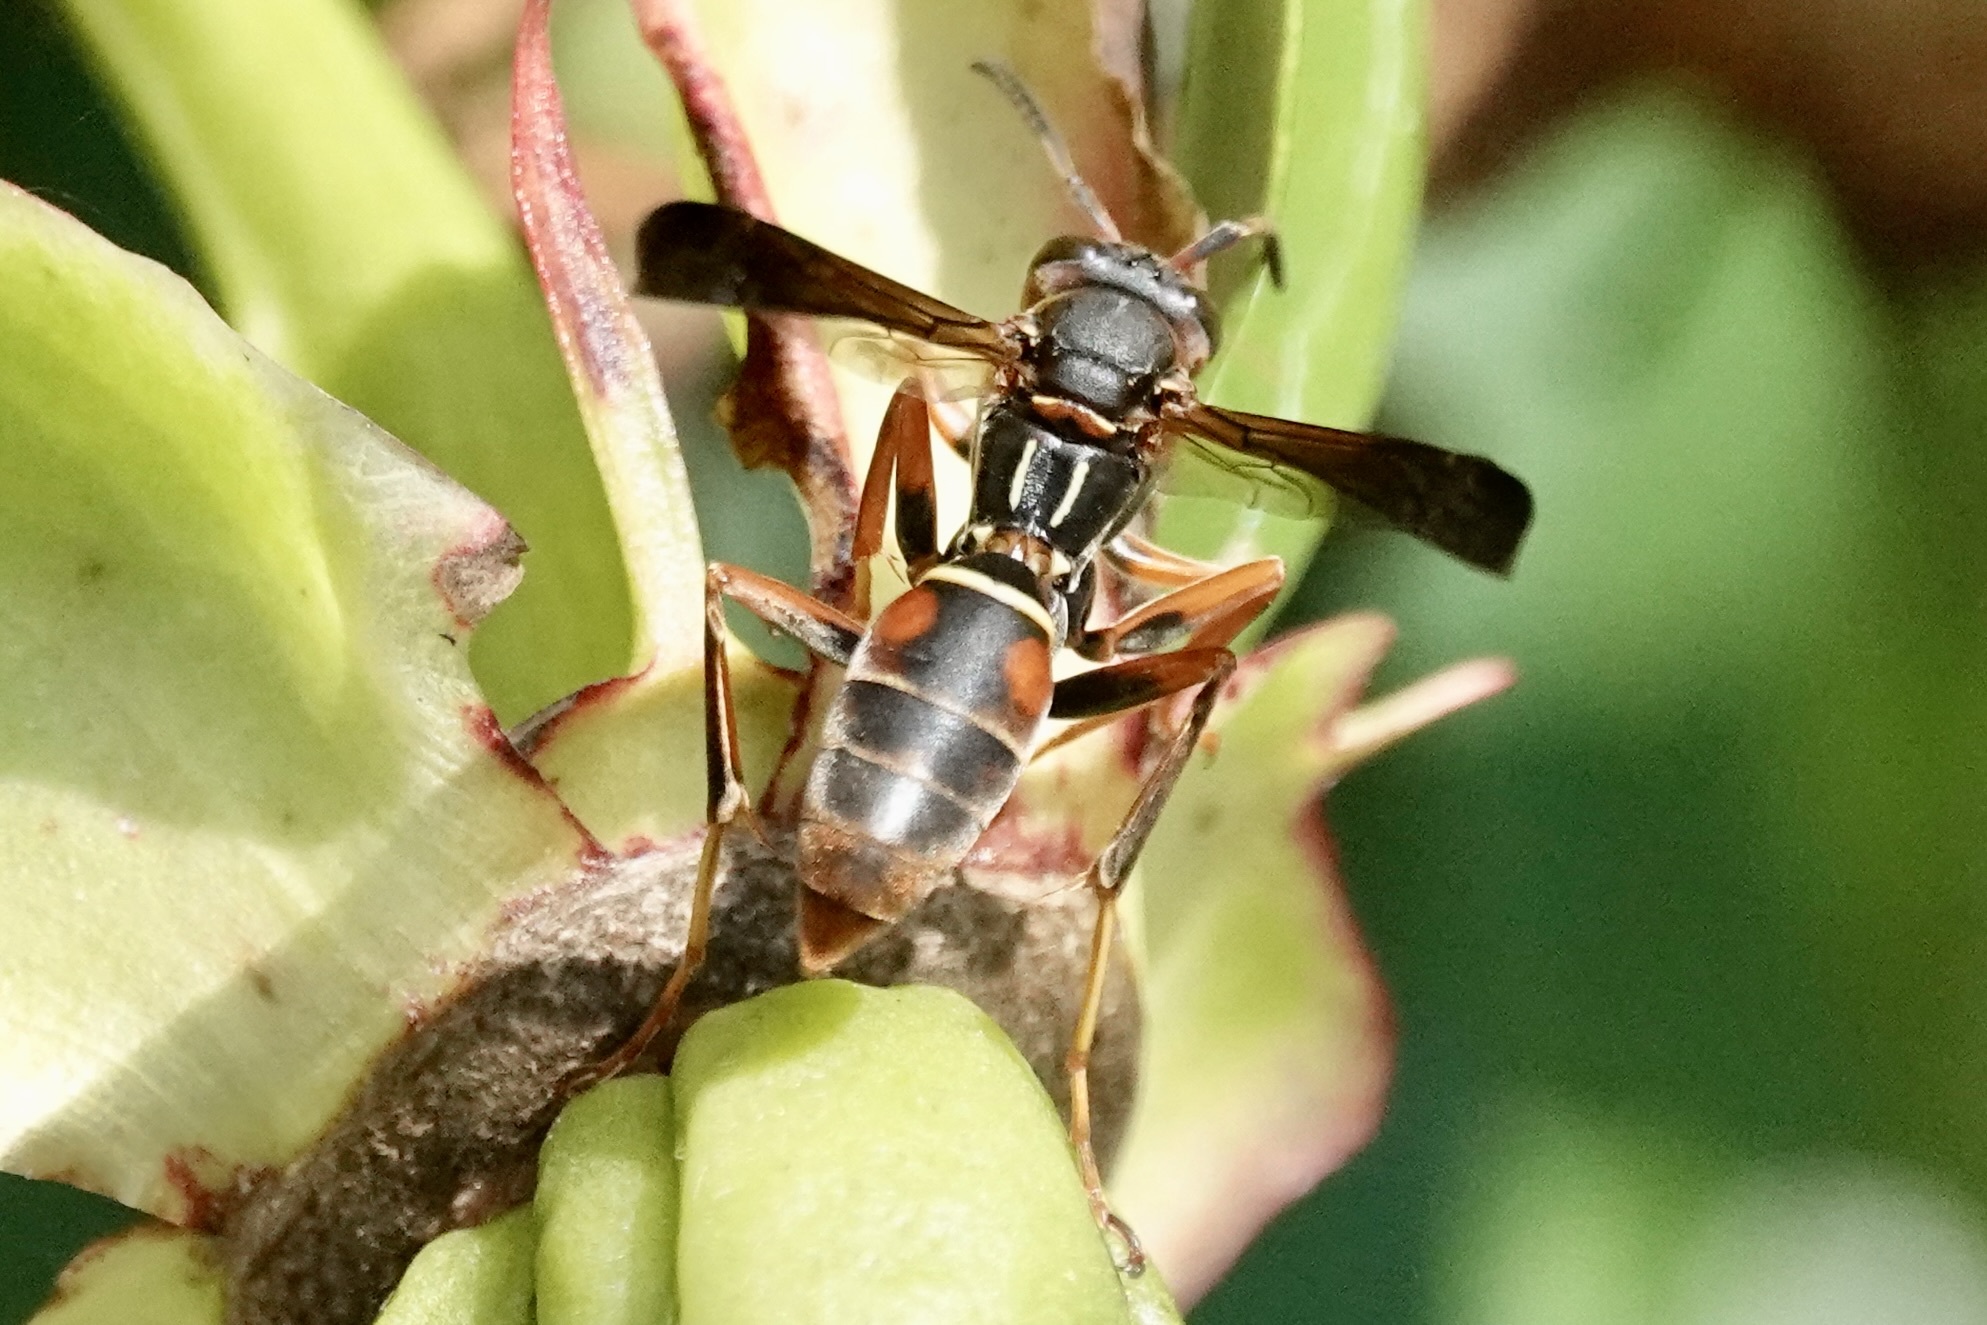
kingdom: Animalia
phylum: Arthropoda
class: Insecta
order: Hymenoptera
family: Eumenidae
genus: Polistes
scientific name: Polistes fuscatus
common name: Dark paper wasp
